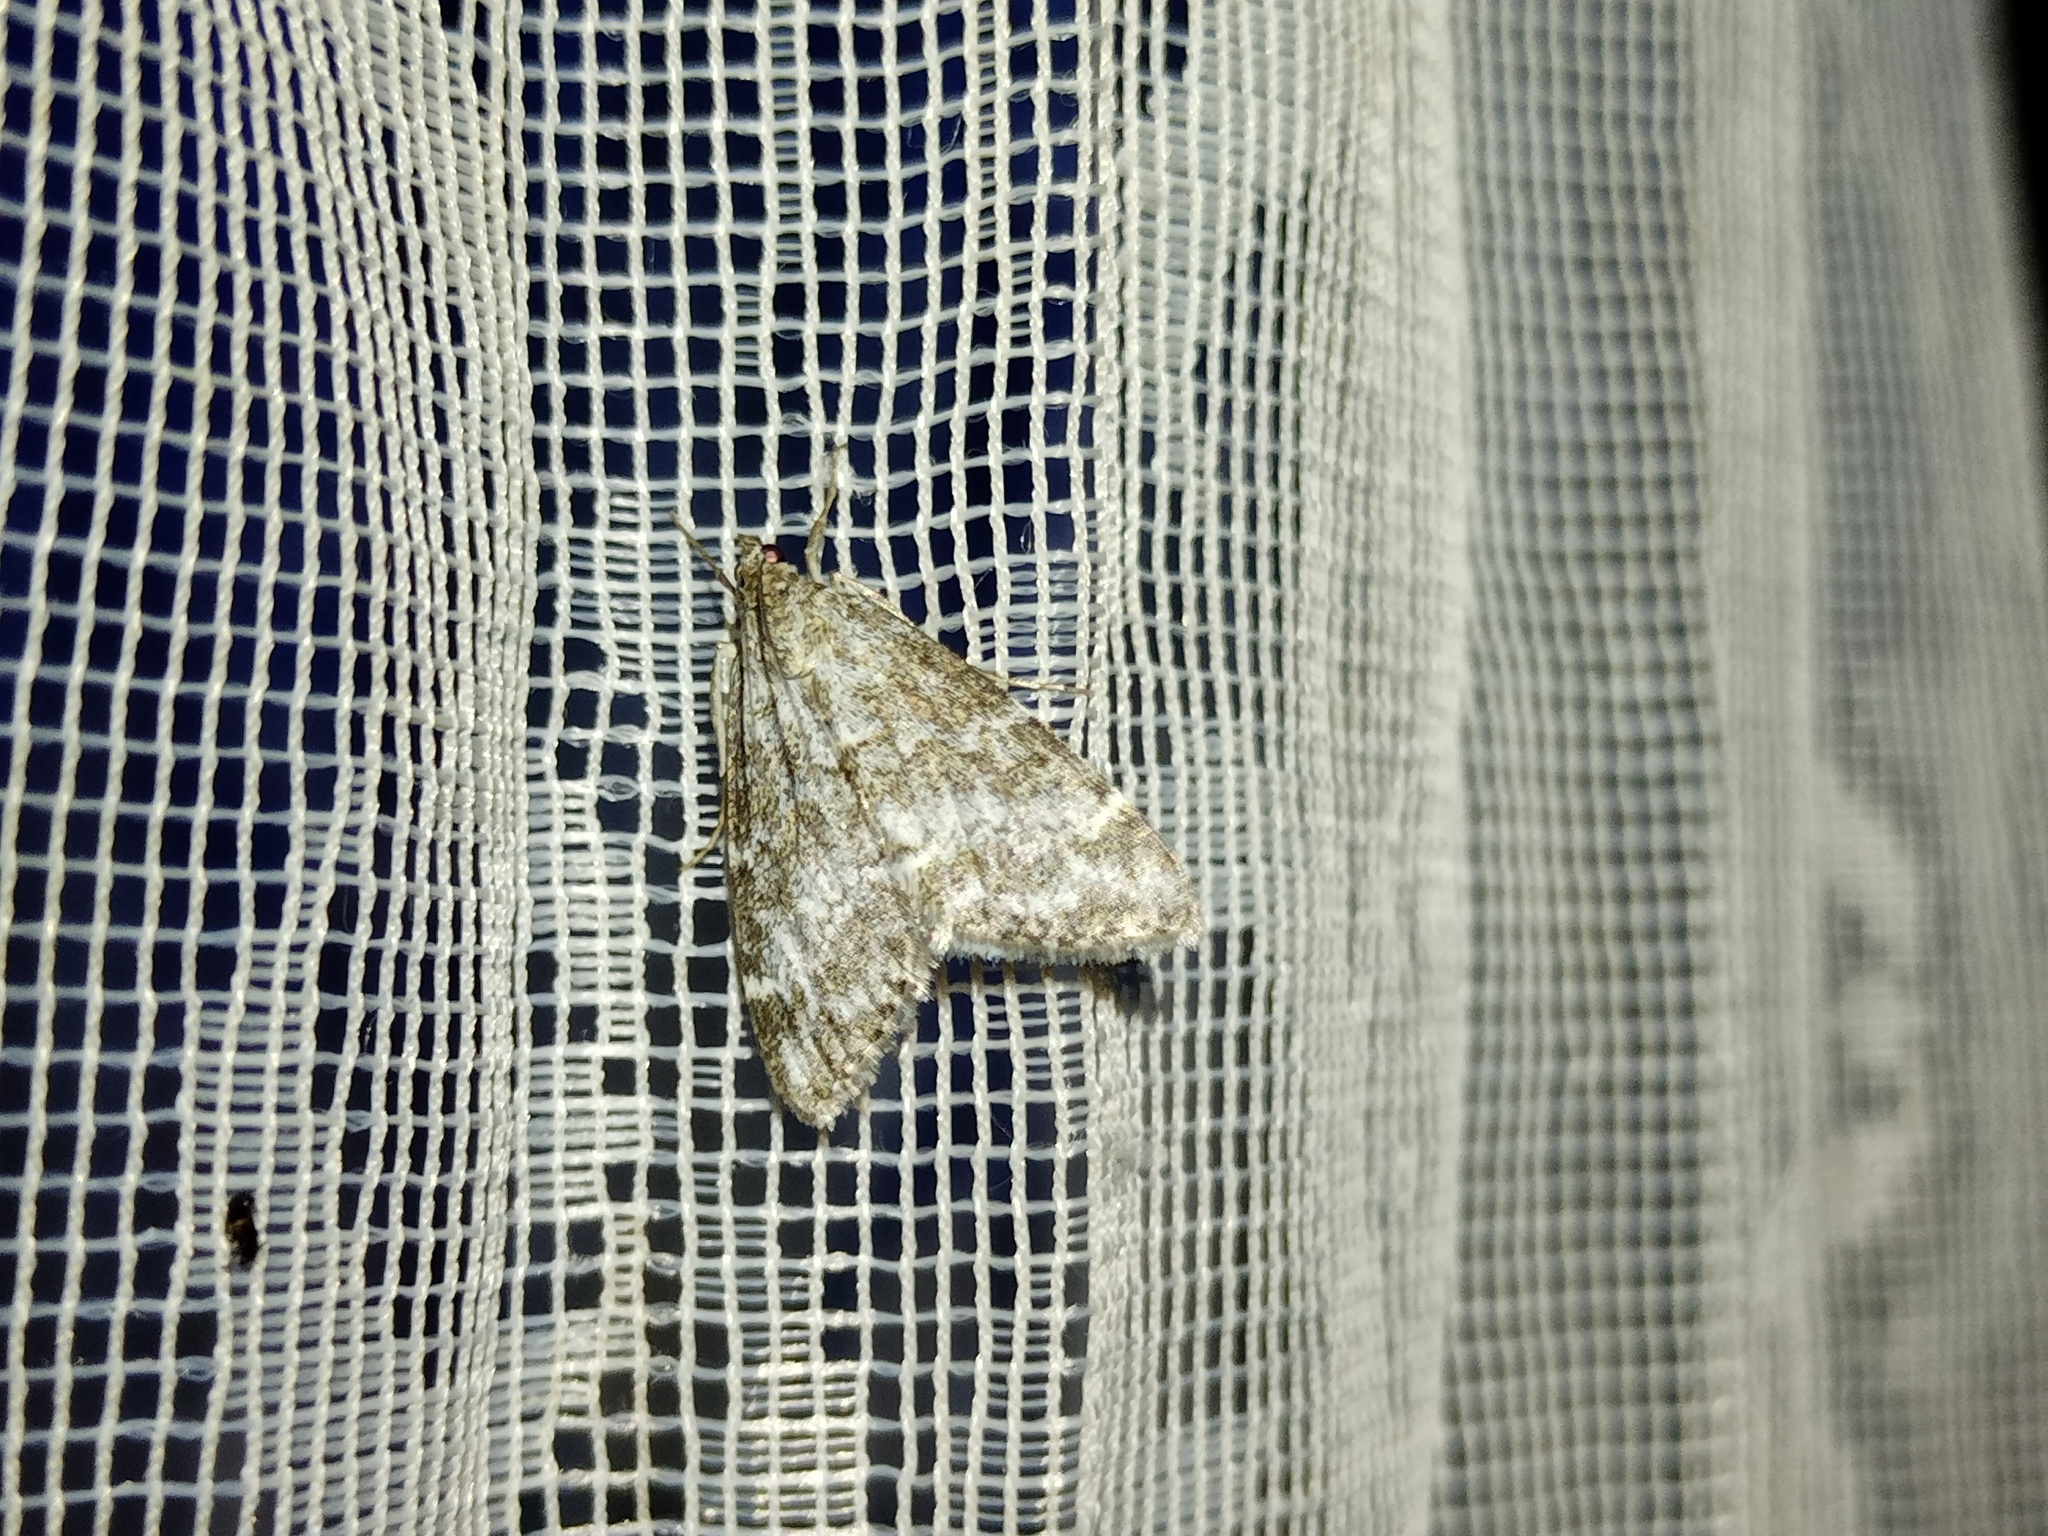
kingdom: Animalia
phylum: Arthropoda
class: Insecta
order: Lepidoptera
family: Crambidae
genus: Evergestis
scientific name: Evergestis sophialis
